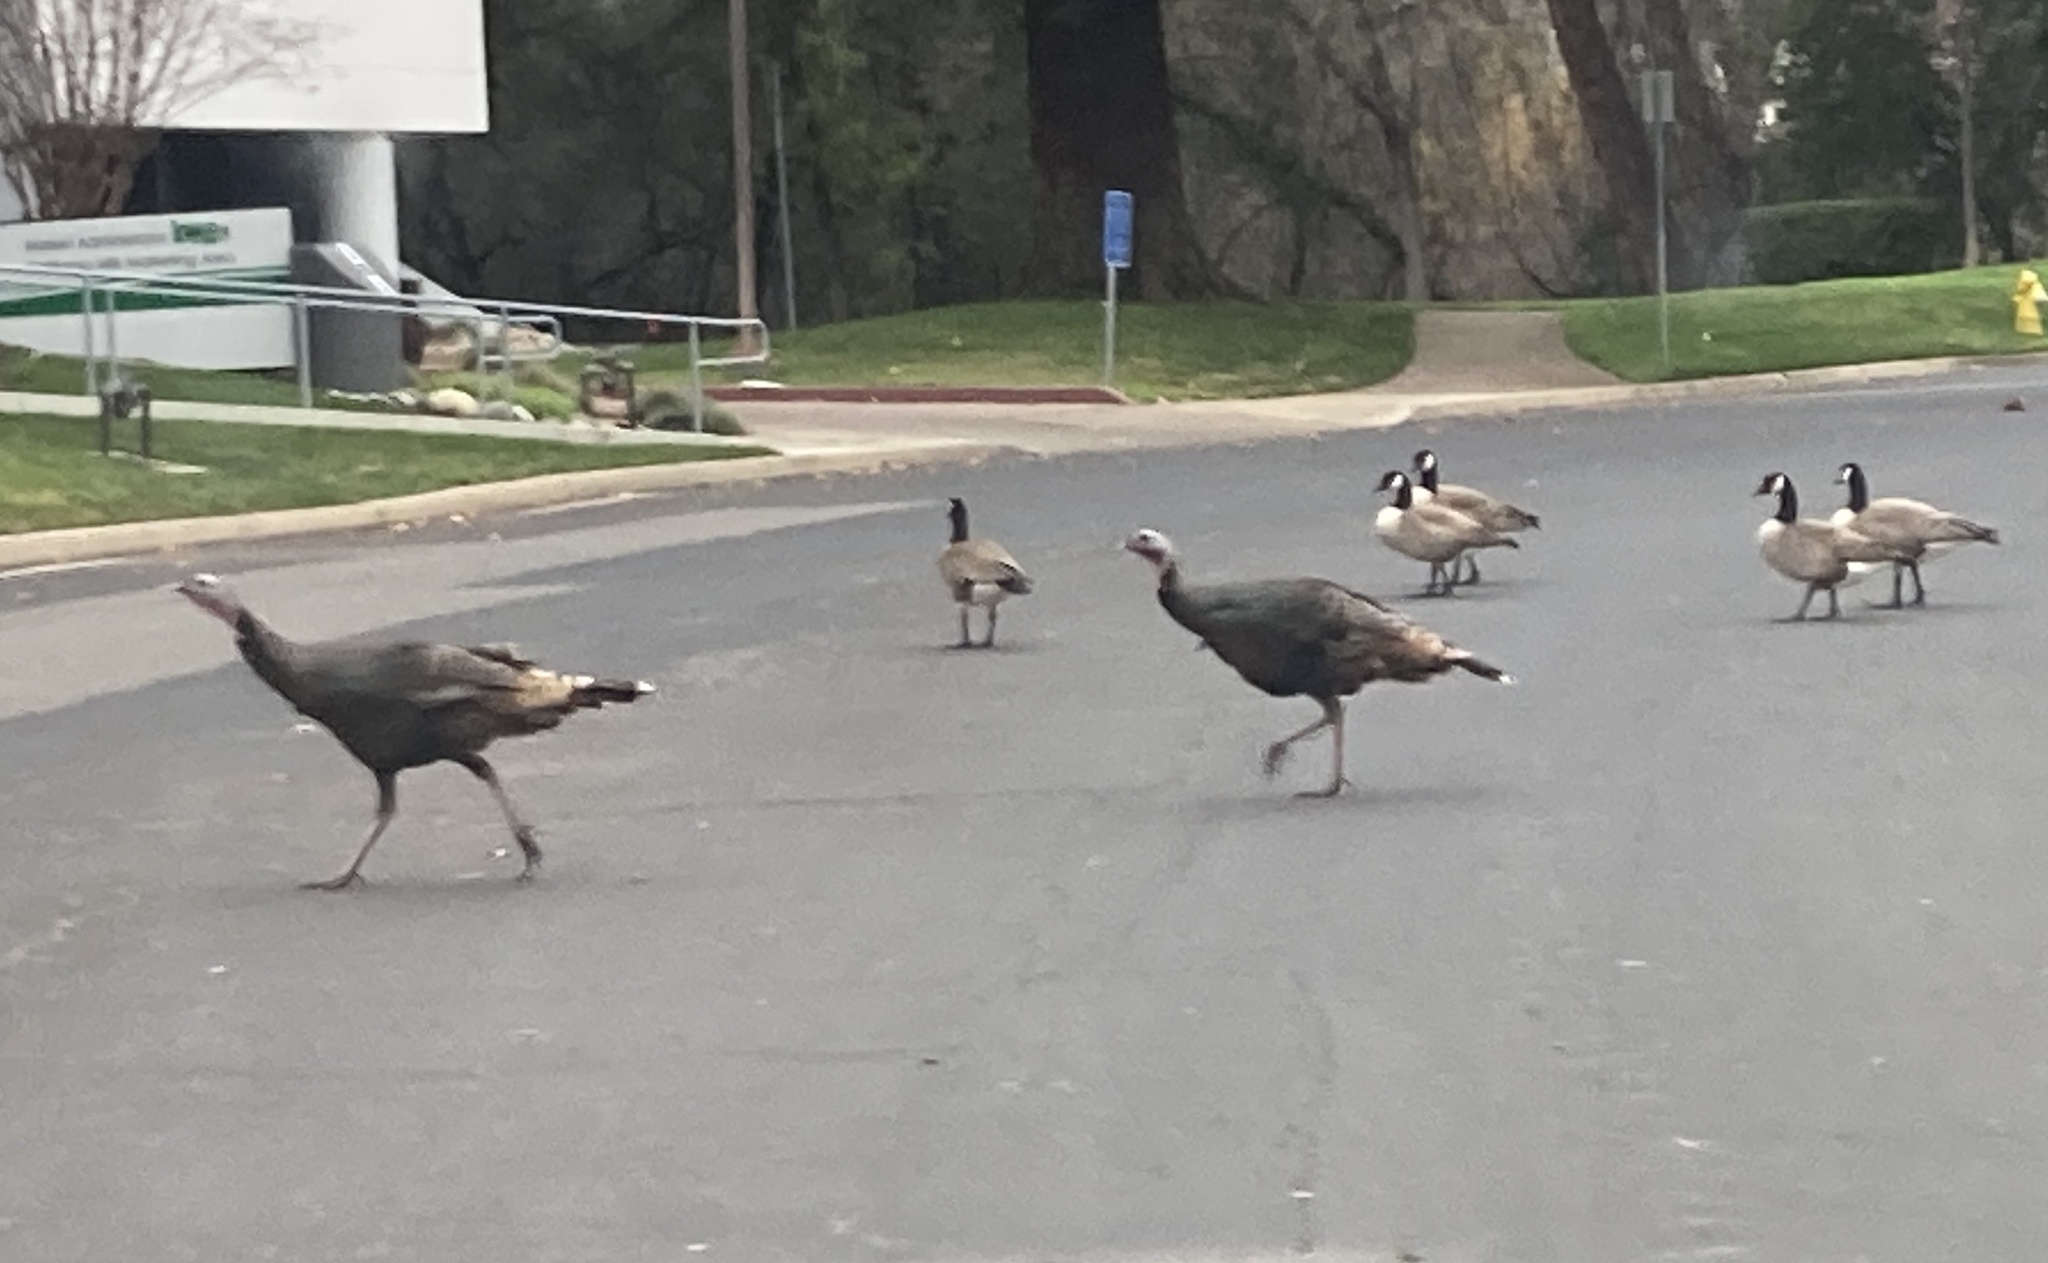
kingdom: Animalia
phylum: Chordata
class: Aves
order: Galliformes
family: Phasianidae
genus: Meleagris
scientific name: Meleagris gallopavo
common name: Wild turkey
